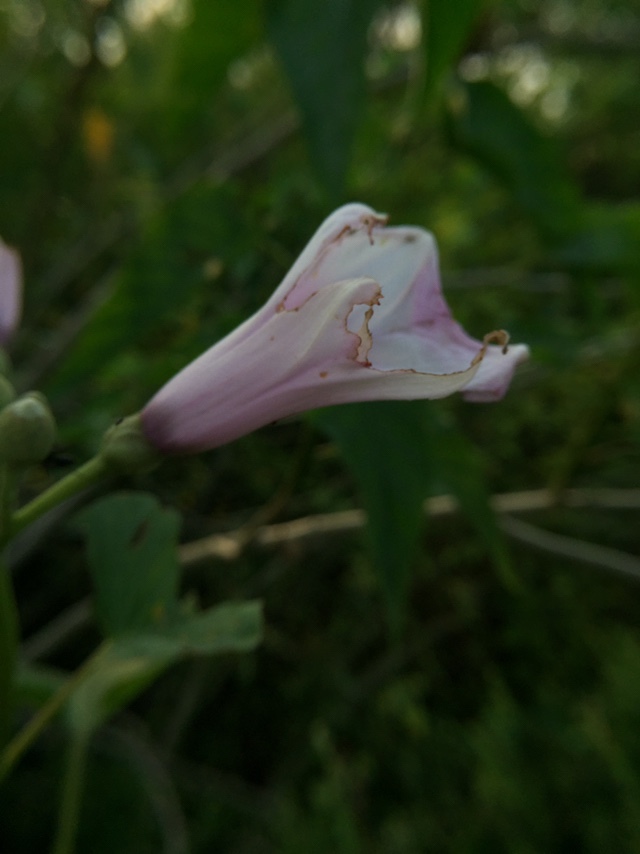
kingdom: Plantae
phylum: Tracheophyta
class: Magnoliopsida
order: Solanales
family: Convolvulaceae
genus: Ipomoea
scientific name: Ipomoea carnea
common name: Morning-glory
